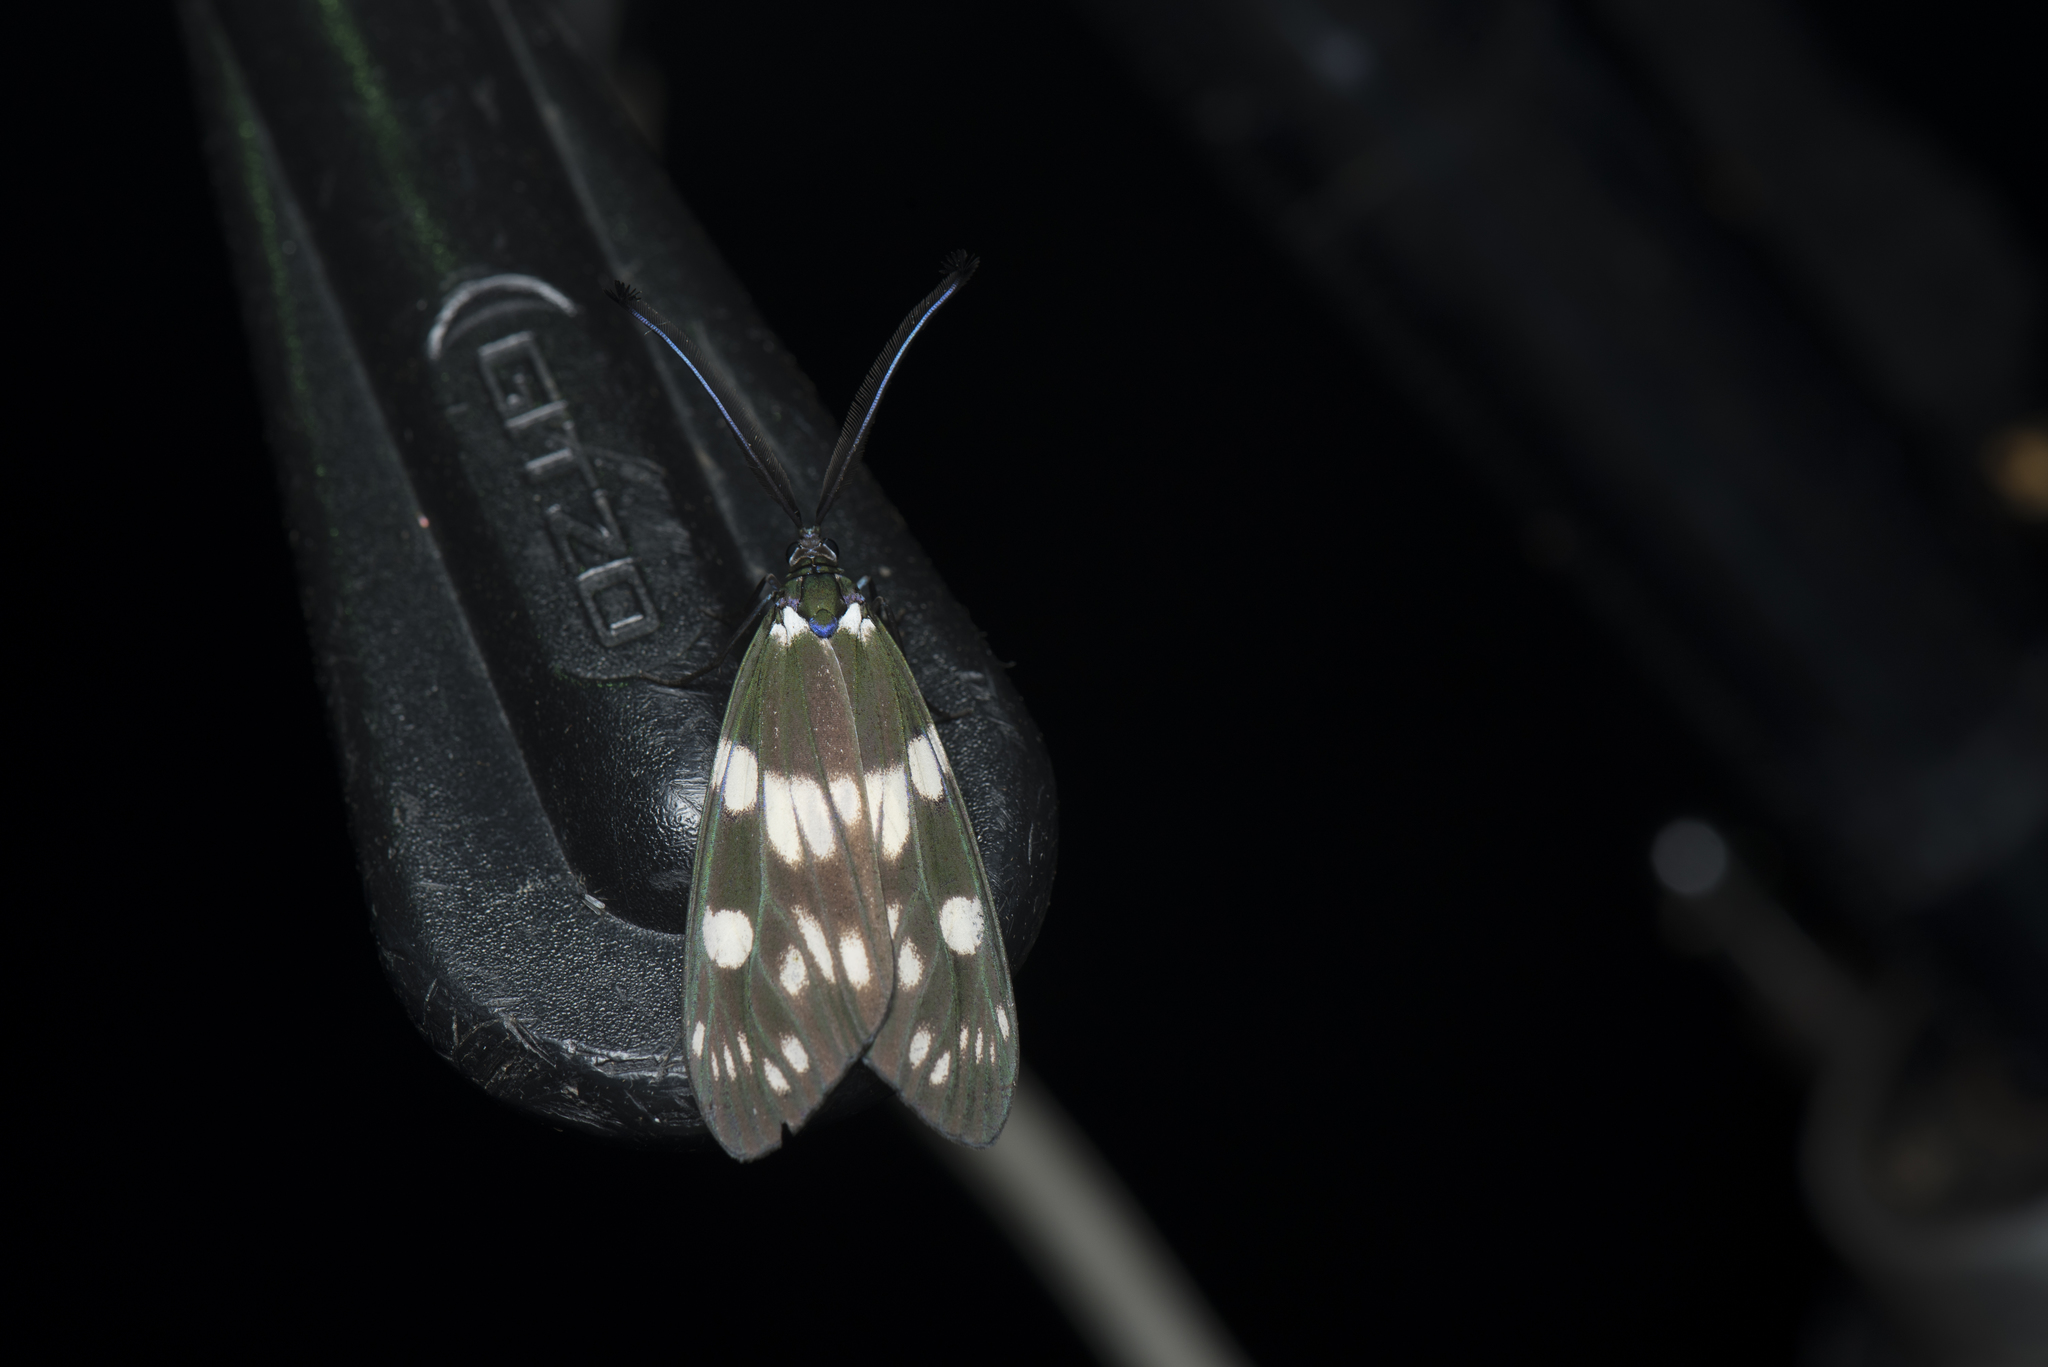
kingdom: Animalia
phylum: Arthropoda
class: Insecta
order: Lepidoptera
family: Zygaenidae
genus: Eterusia
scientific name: Eterusia aedea
